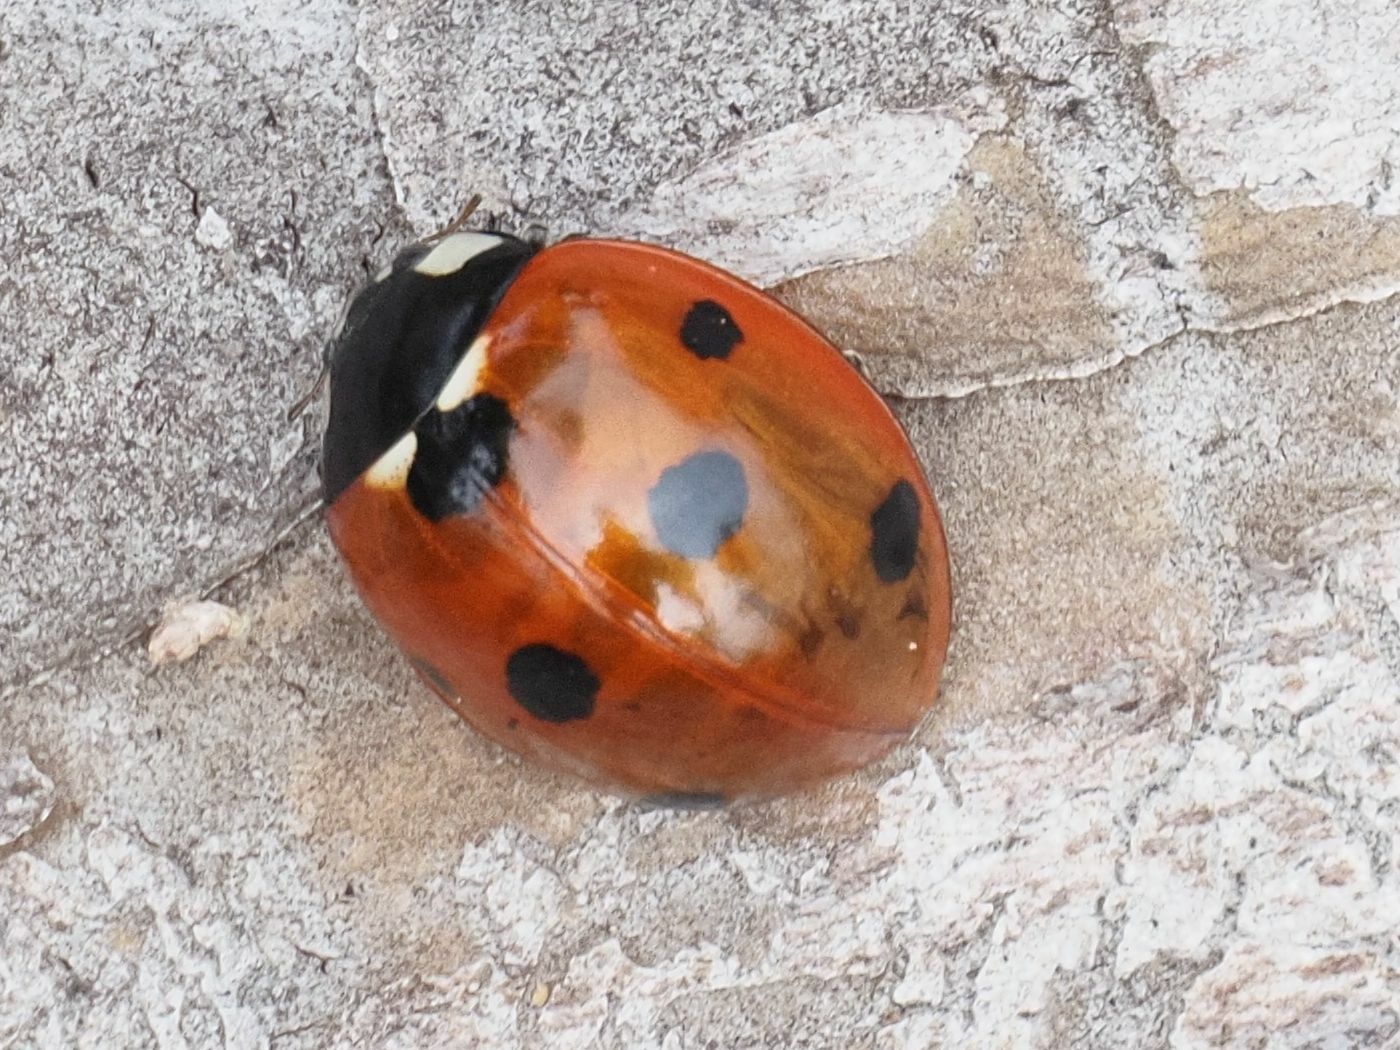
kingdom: Animalia
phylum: Arthropoda
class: Insecta
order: Coleoptera
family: Coccinellidae
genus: Coccinella
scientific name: Coccinella septempunctata
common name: Sevenspotted lady beetle
